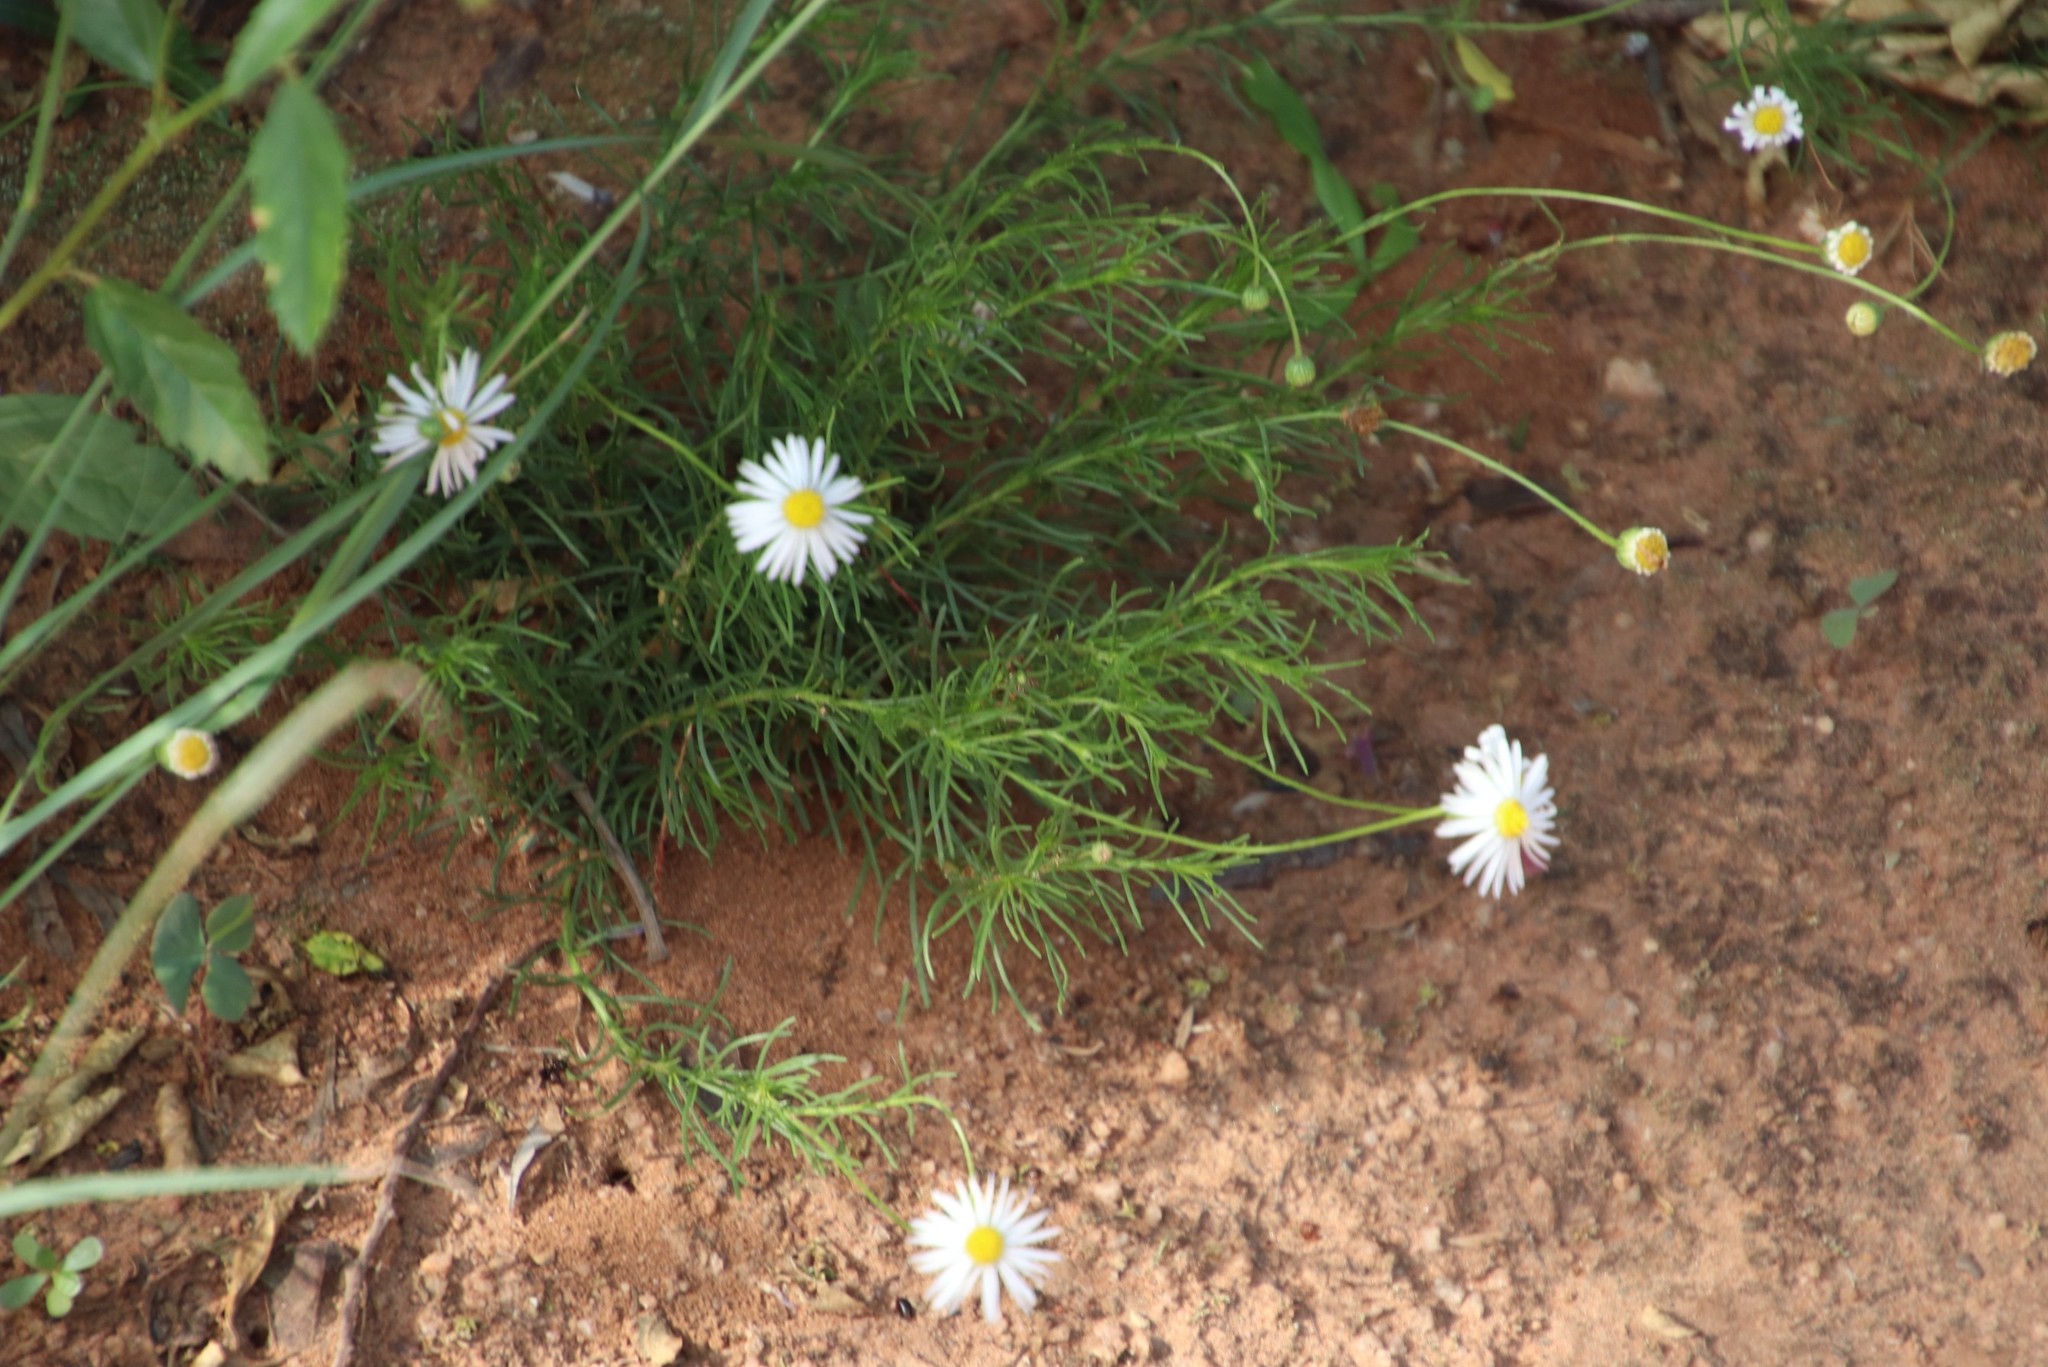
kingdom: Plantae
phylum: Tracheophyta
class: Magnoliopsida
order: Asterales
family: Asteraceae
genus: Felicia
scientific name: Felicia muricata
